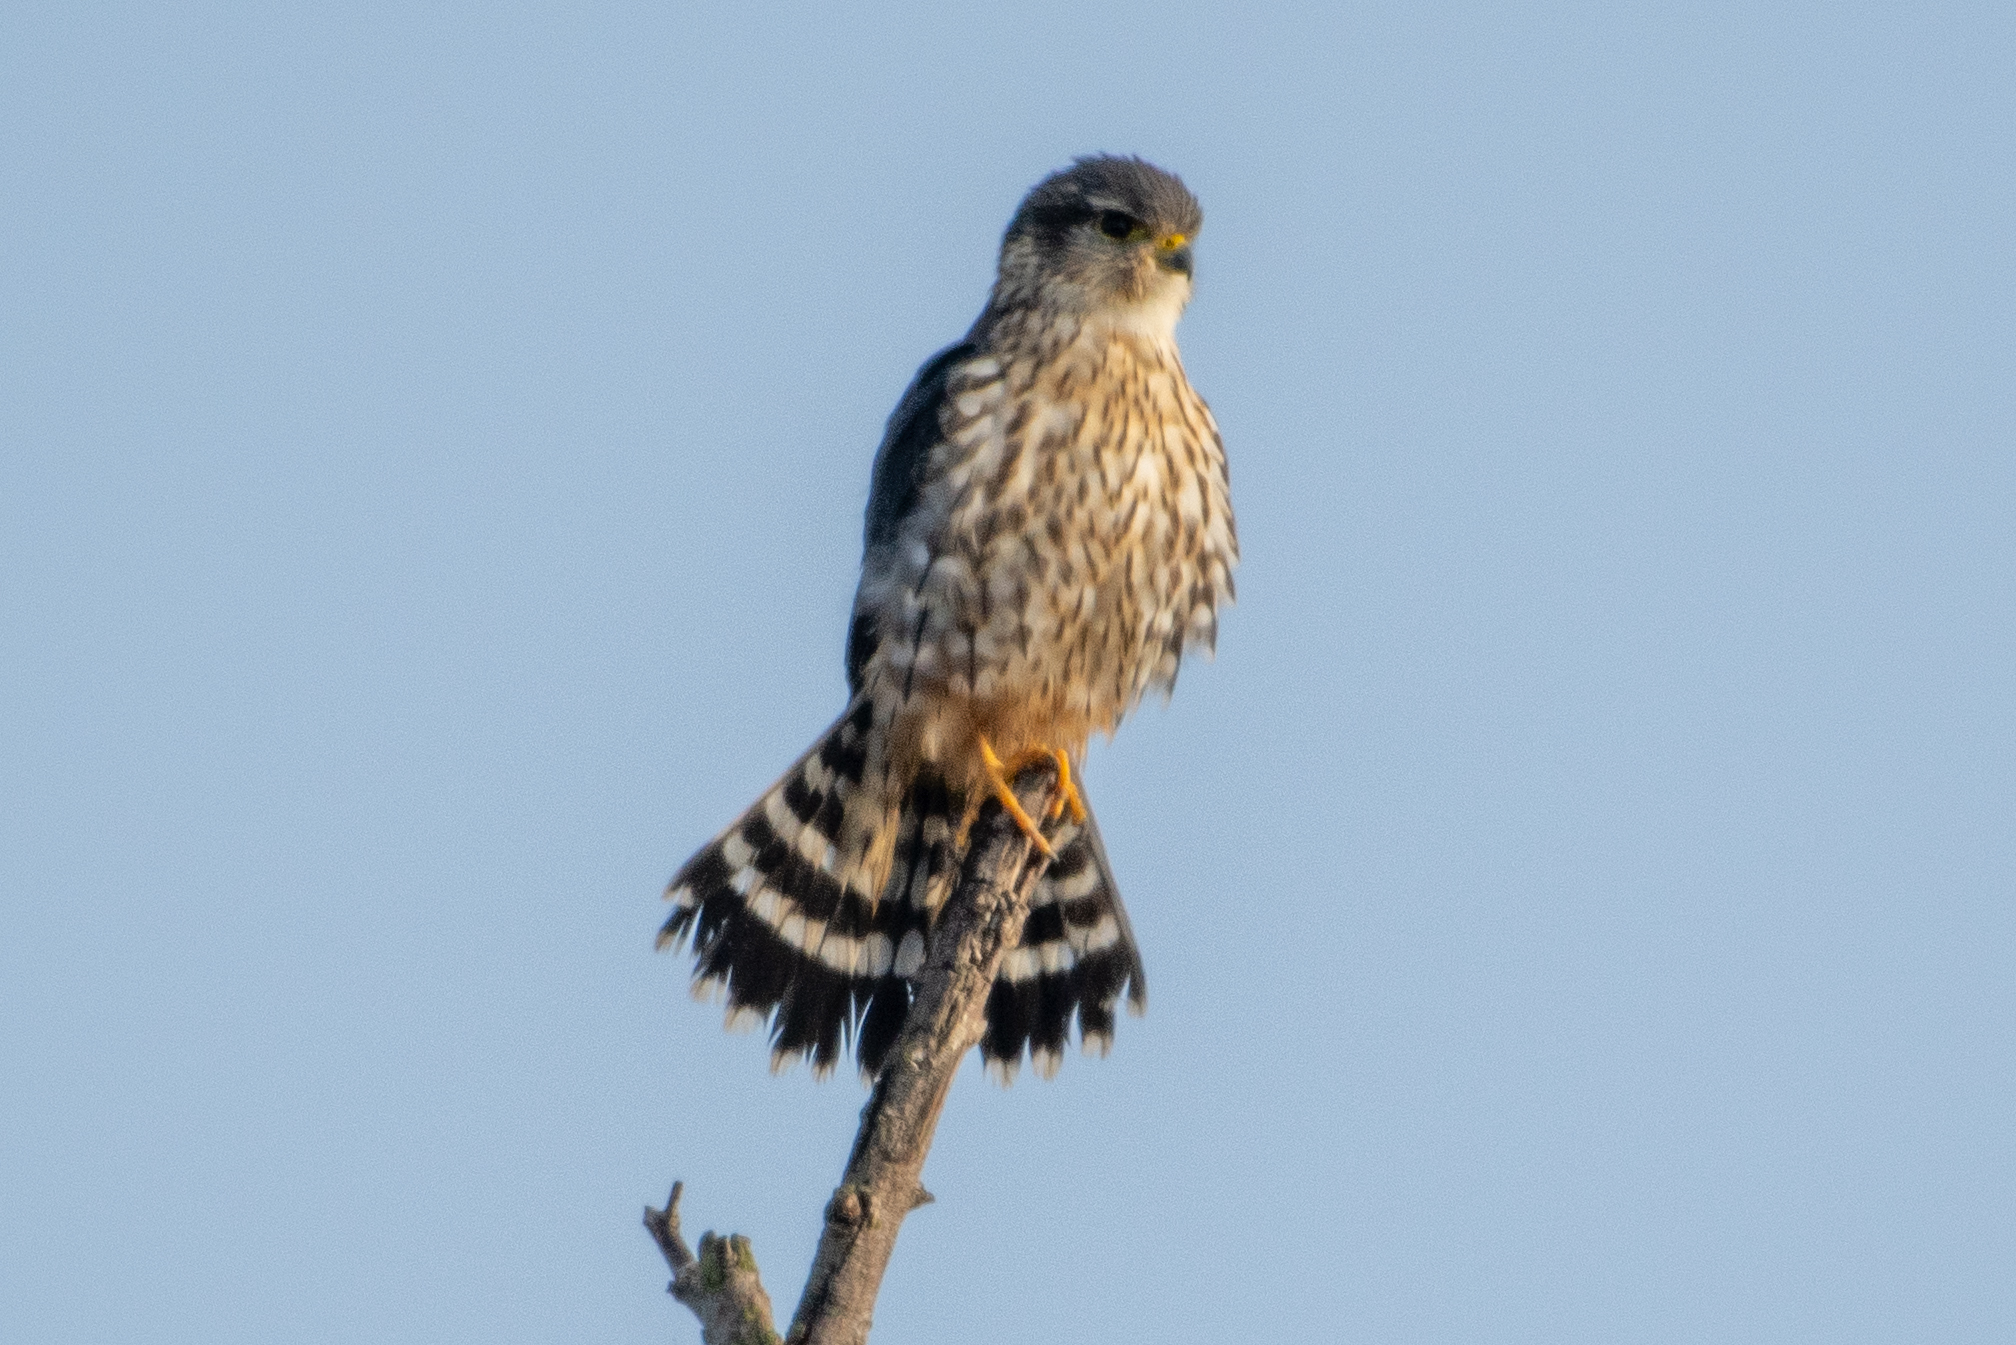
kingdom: Animalia
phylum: Chordata
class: Aves
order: Falconiformes
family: Falconidae
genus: Falco
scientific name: Falco columbarius
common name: Merlin
